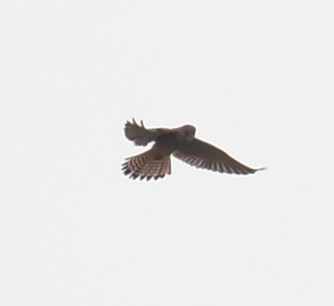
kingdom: Animalia
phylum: Chordata
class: Aves
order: Falconiformes
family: Falconidae
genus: Falco
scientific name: Falco tinnunculus
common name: Common kestrel
